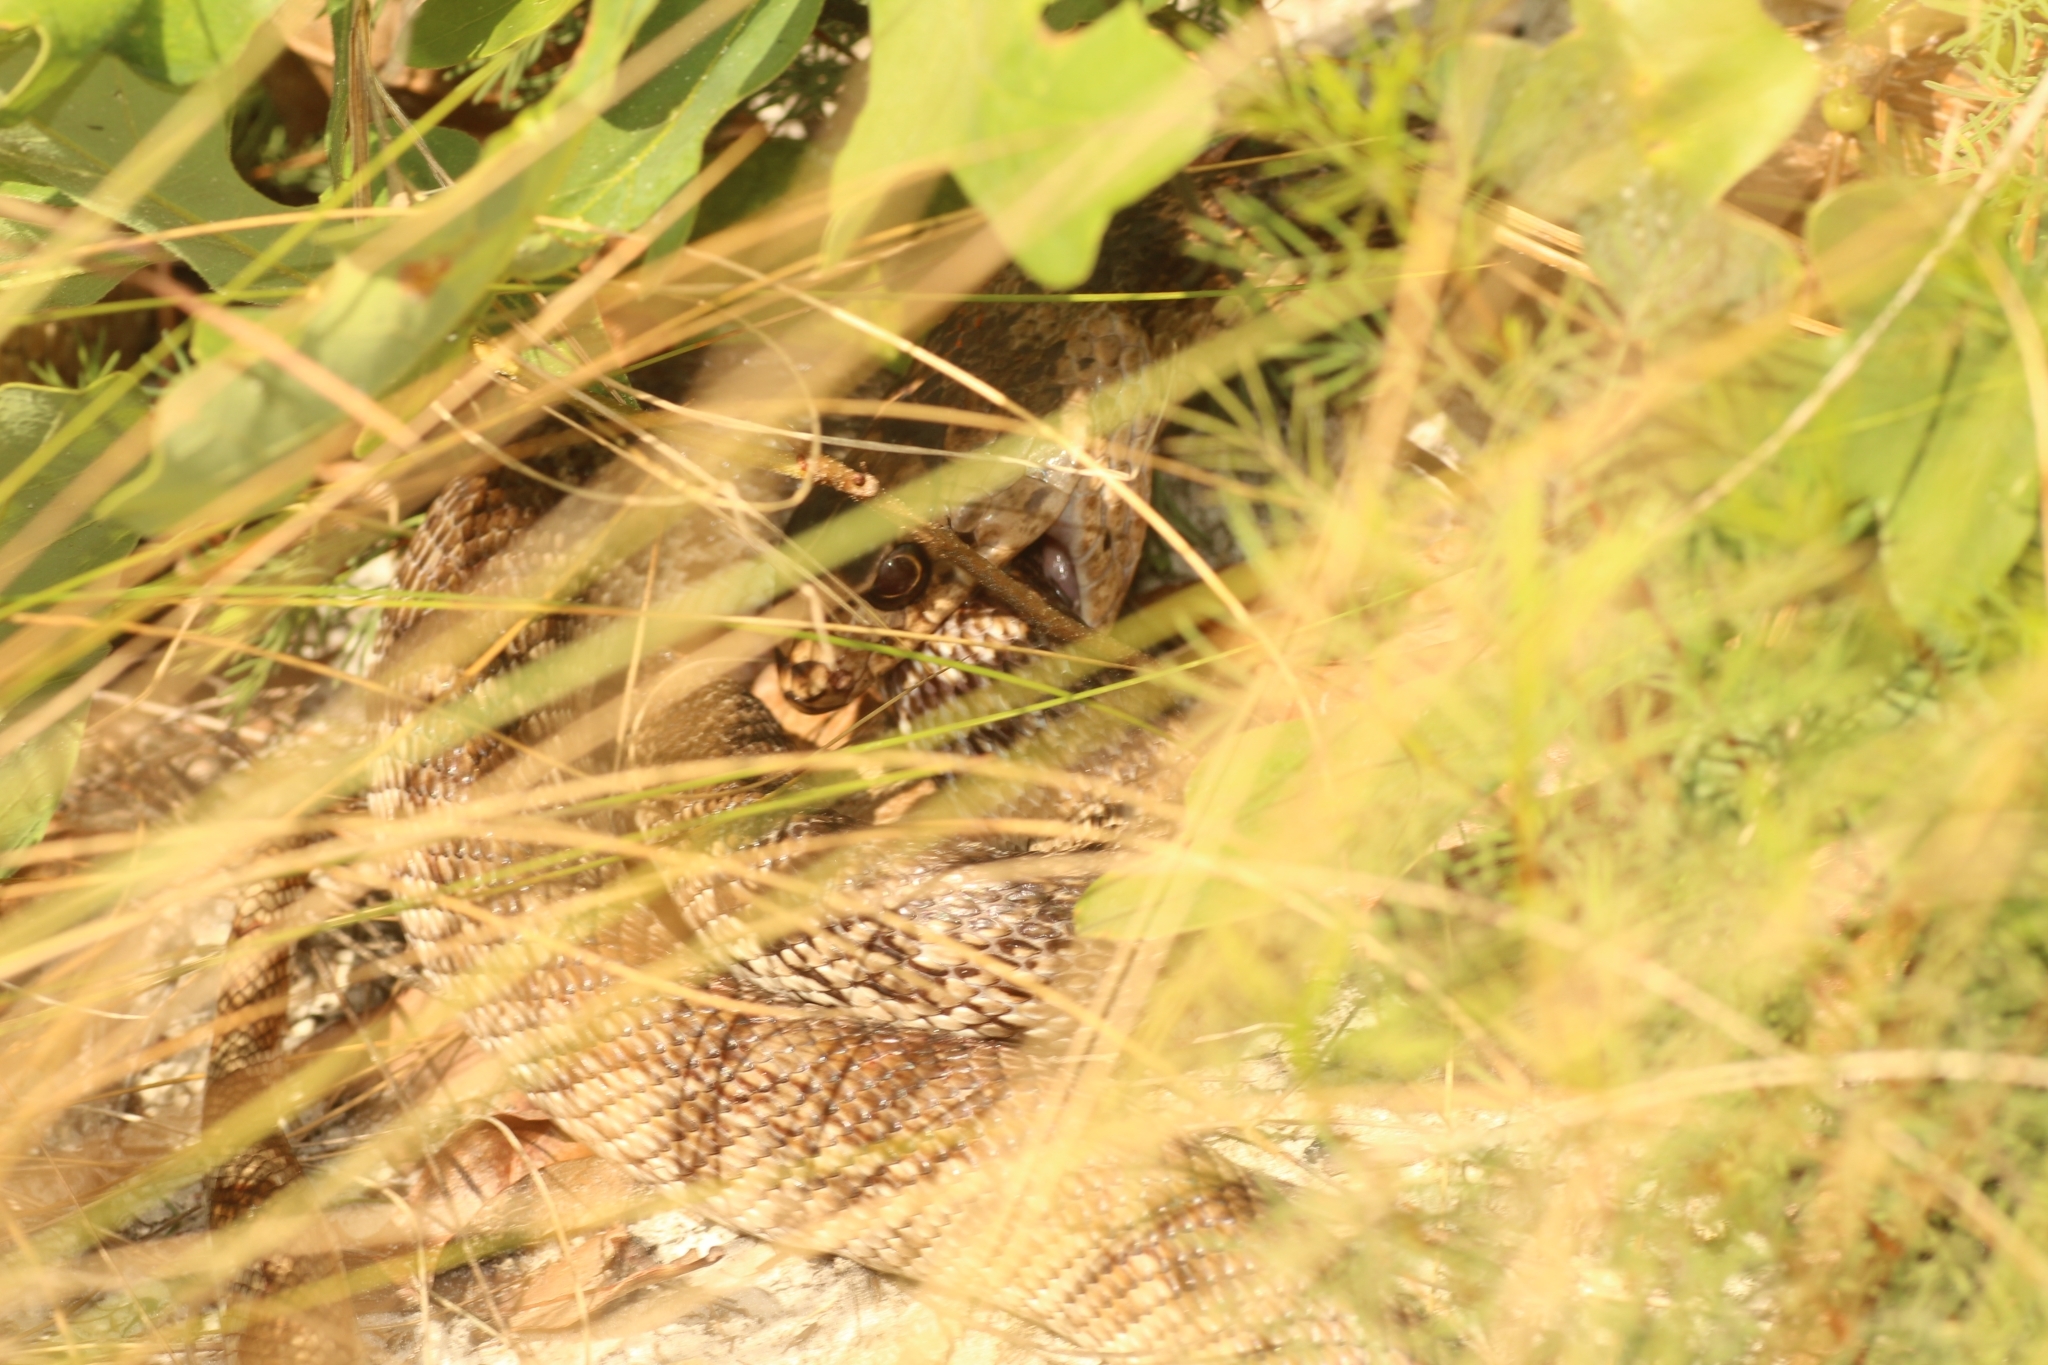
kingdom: Animalia
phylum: Chordata
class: Squamata
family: Colubridae
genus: Masticophis
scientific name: Masticophis flagellum
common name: Coachwhip
